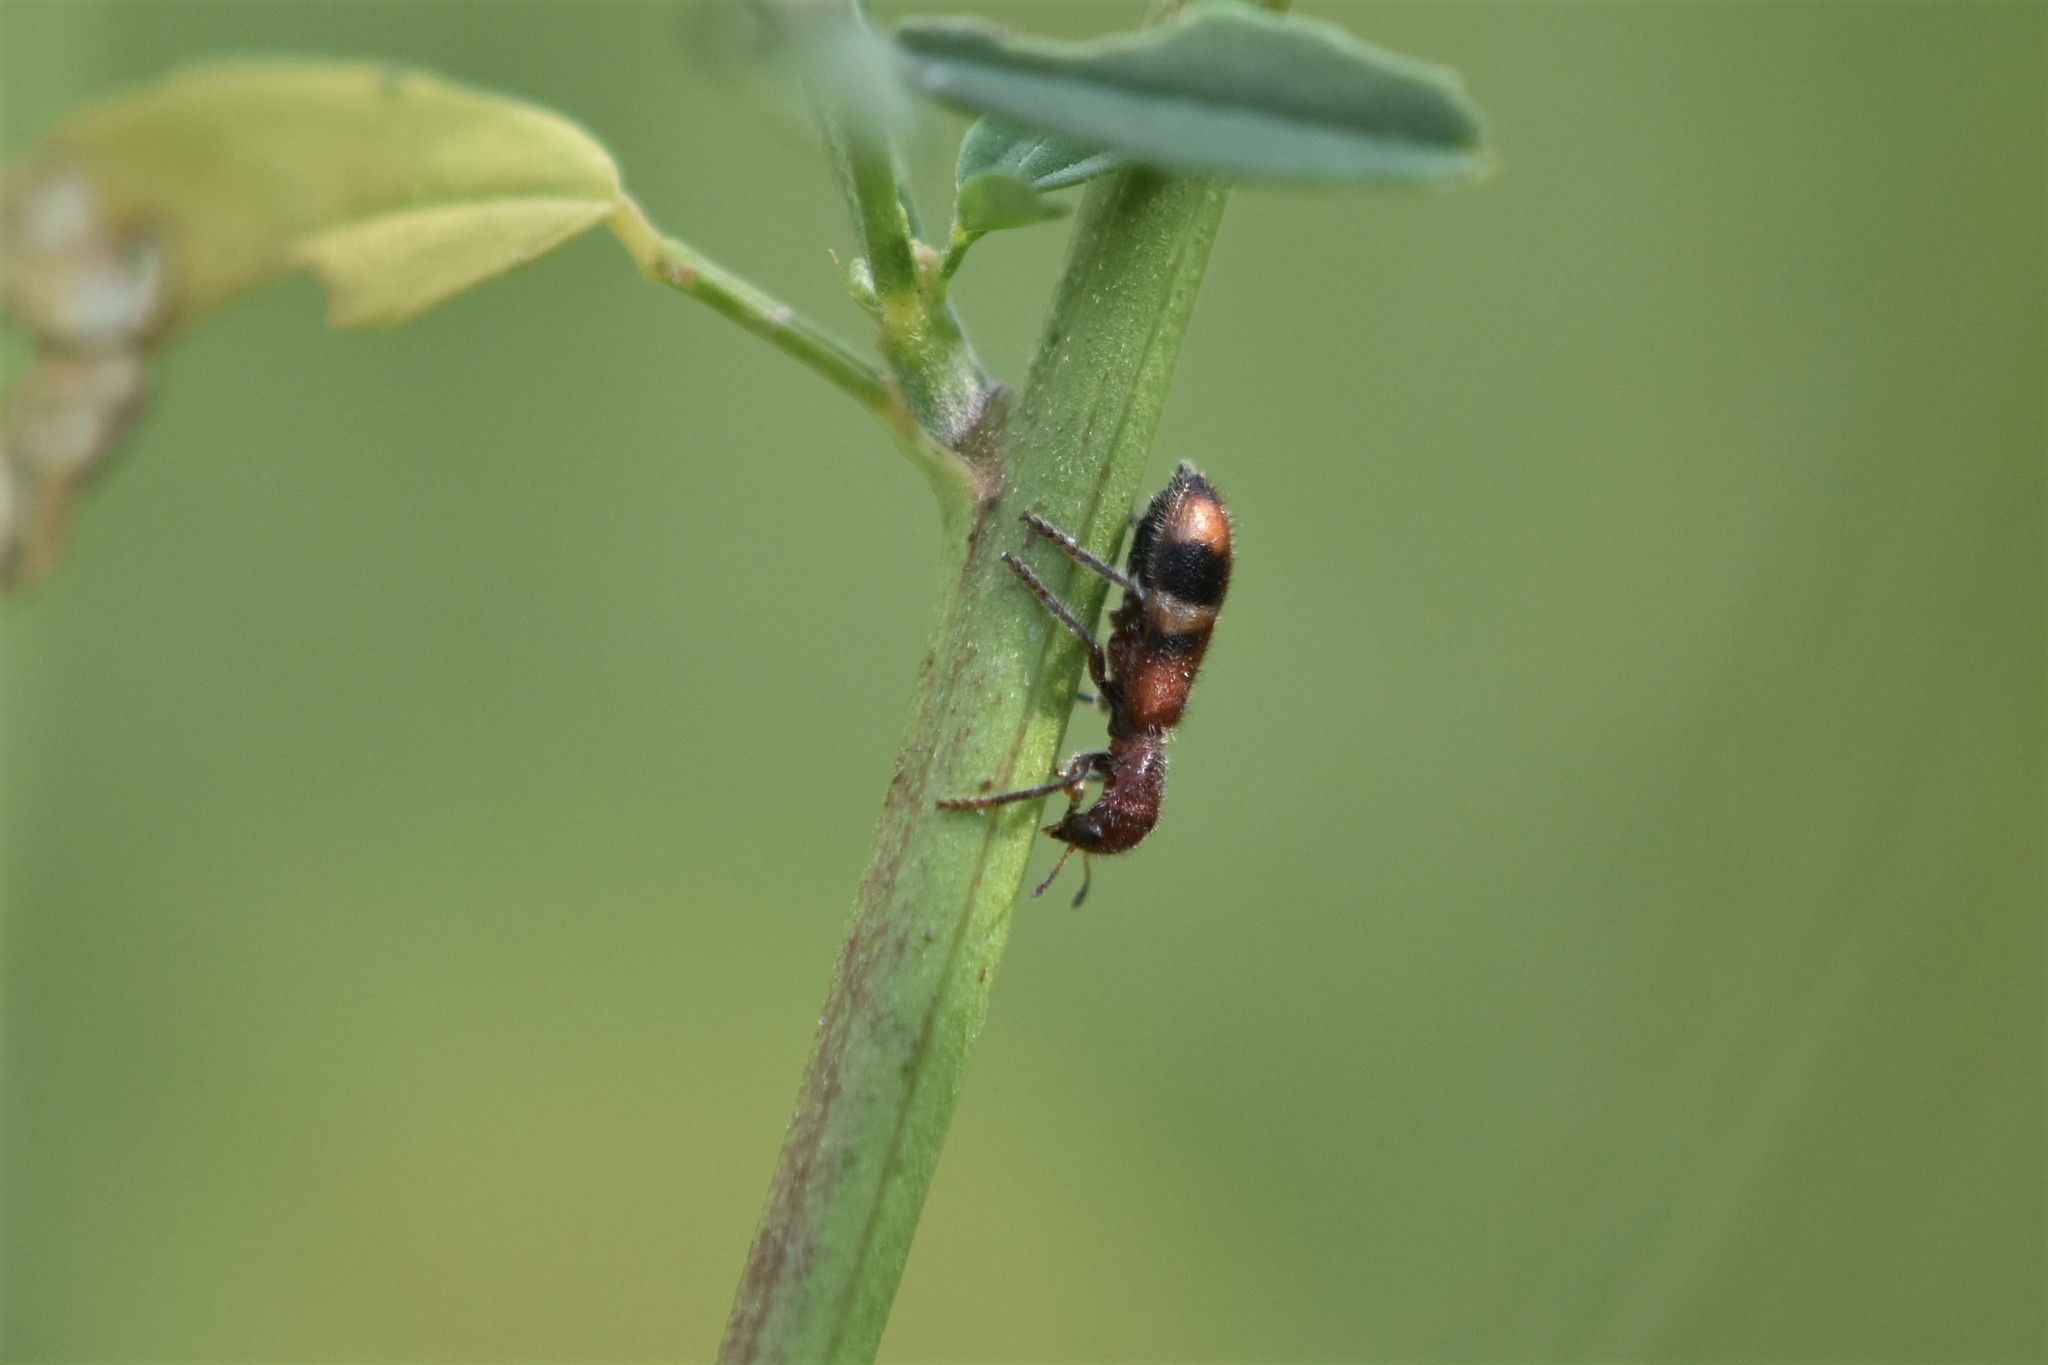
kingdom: Animalia
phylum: Arthropoda
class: Insecta
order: Coleoptera
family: Cleridae
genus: Enoclerus
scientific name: Enoclerus rosmarus
